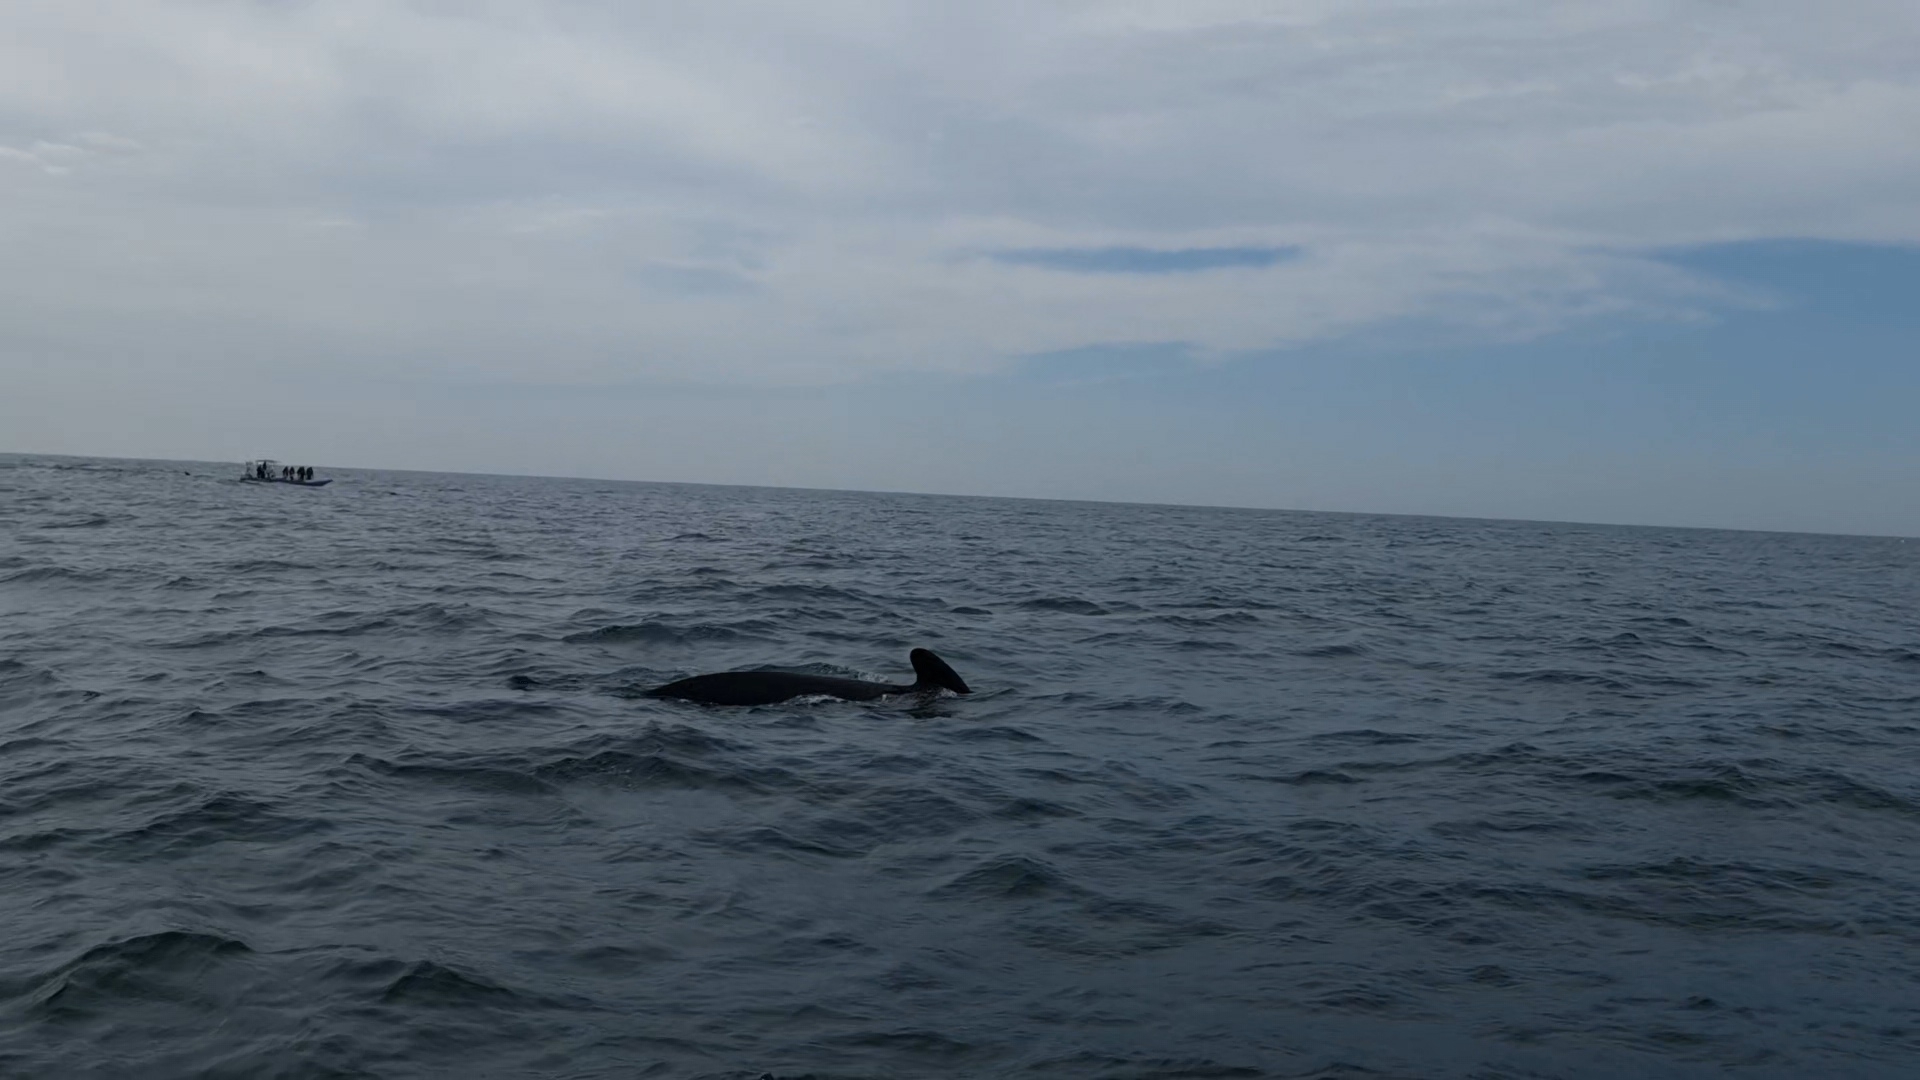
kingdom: Animalia
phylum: Chordata
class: Mammalia
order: Cetacea
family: Delphinidae
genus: Globicephala
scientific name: Globicephala melas
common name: Long-finned pilot whale
